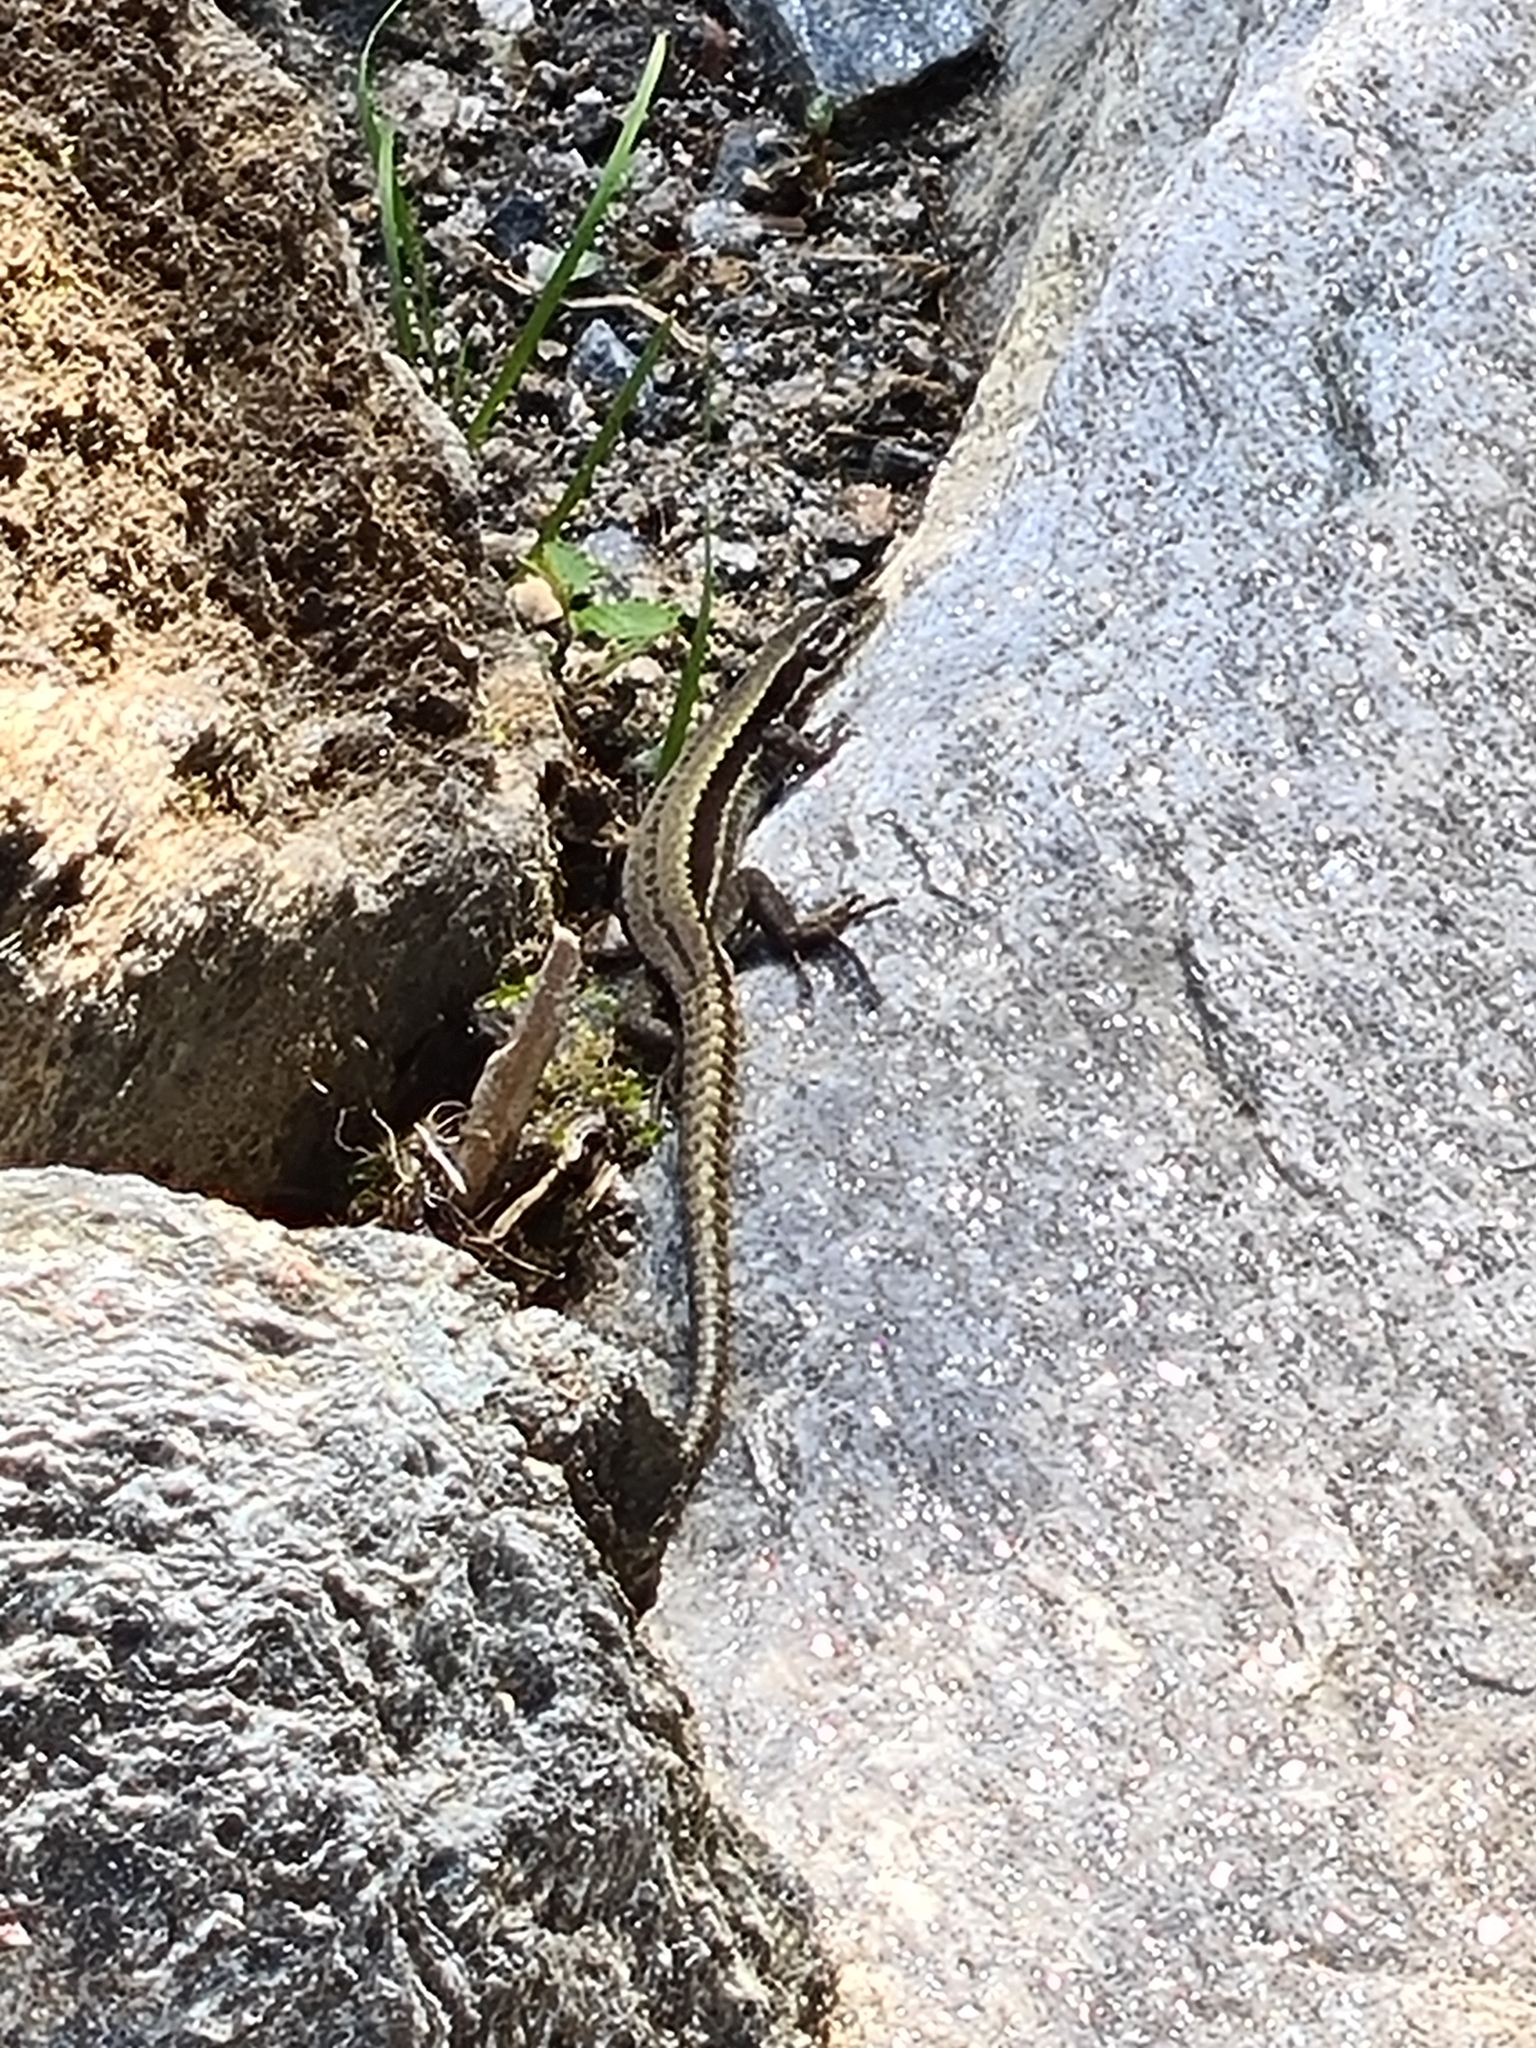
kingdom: Animalia
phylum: Chordata
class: Squamata
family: Lacertidae
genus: Podarcis
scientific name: Podarcis muralis
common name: Common wall lizard
